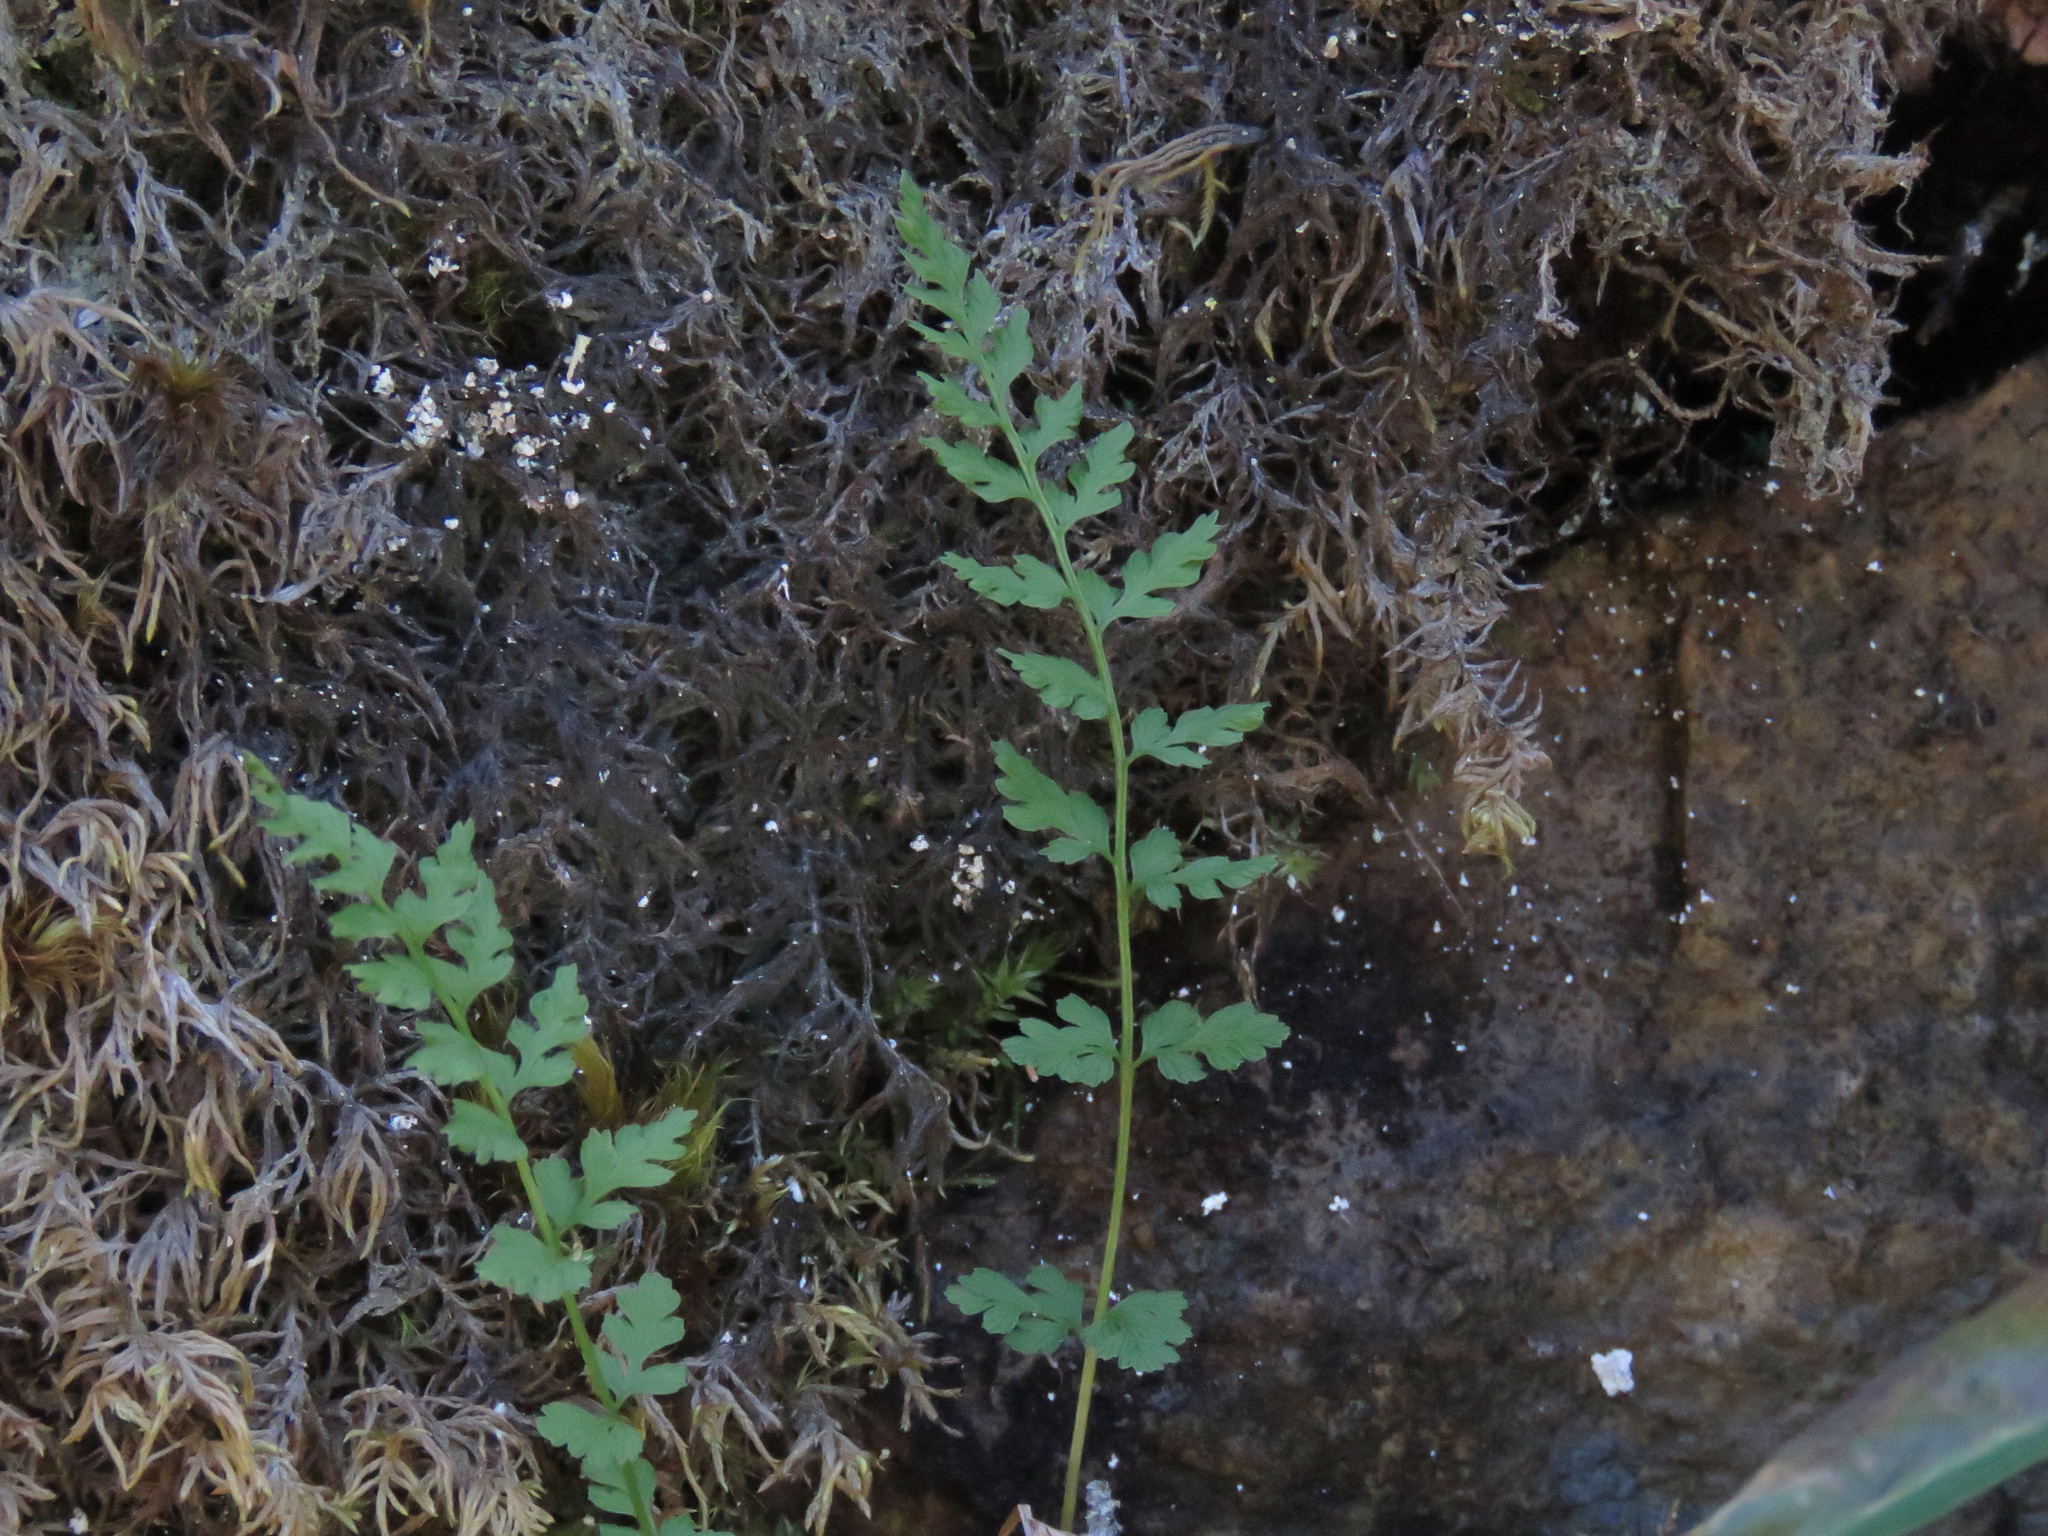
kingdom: Plantae
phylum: Tracheophyta
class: Polypodiopsida
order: Polypodiales
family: Cystopteridaceae
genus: Cystopteris
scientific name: Cystopteris fragilis
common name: Brittle bladder fern
